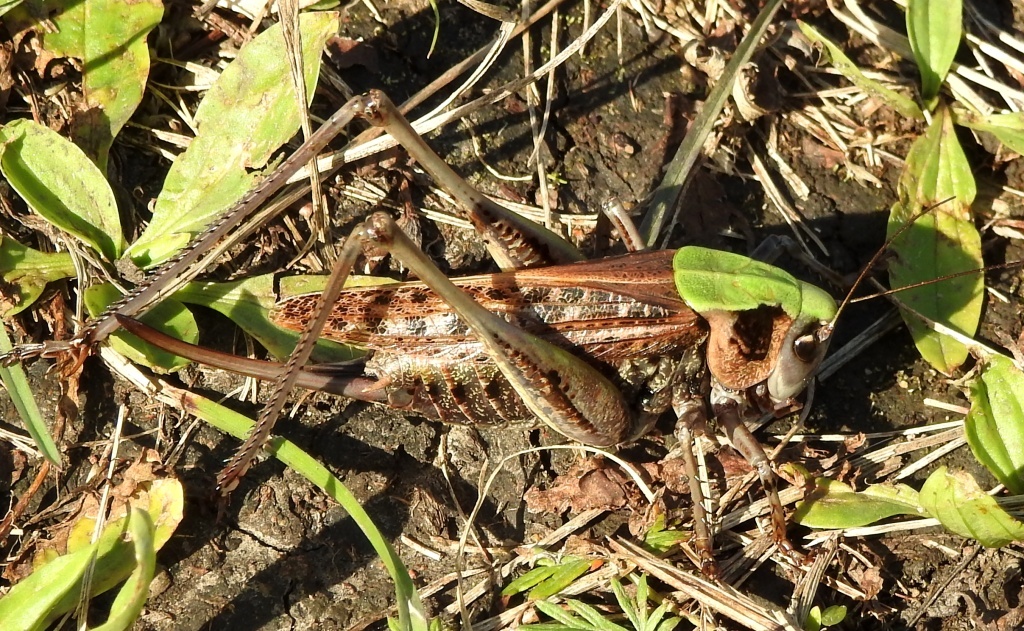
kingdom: Animalia
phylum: Arthropoda
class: Insecta
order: Orthoptera
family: Tettigoniidae
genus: Decticus
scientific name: Decticus verrucivorus
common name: Wart-biter
